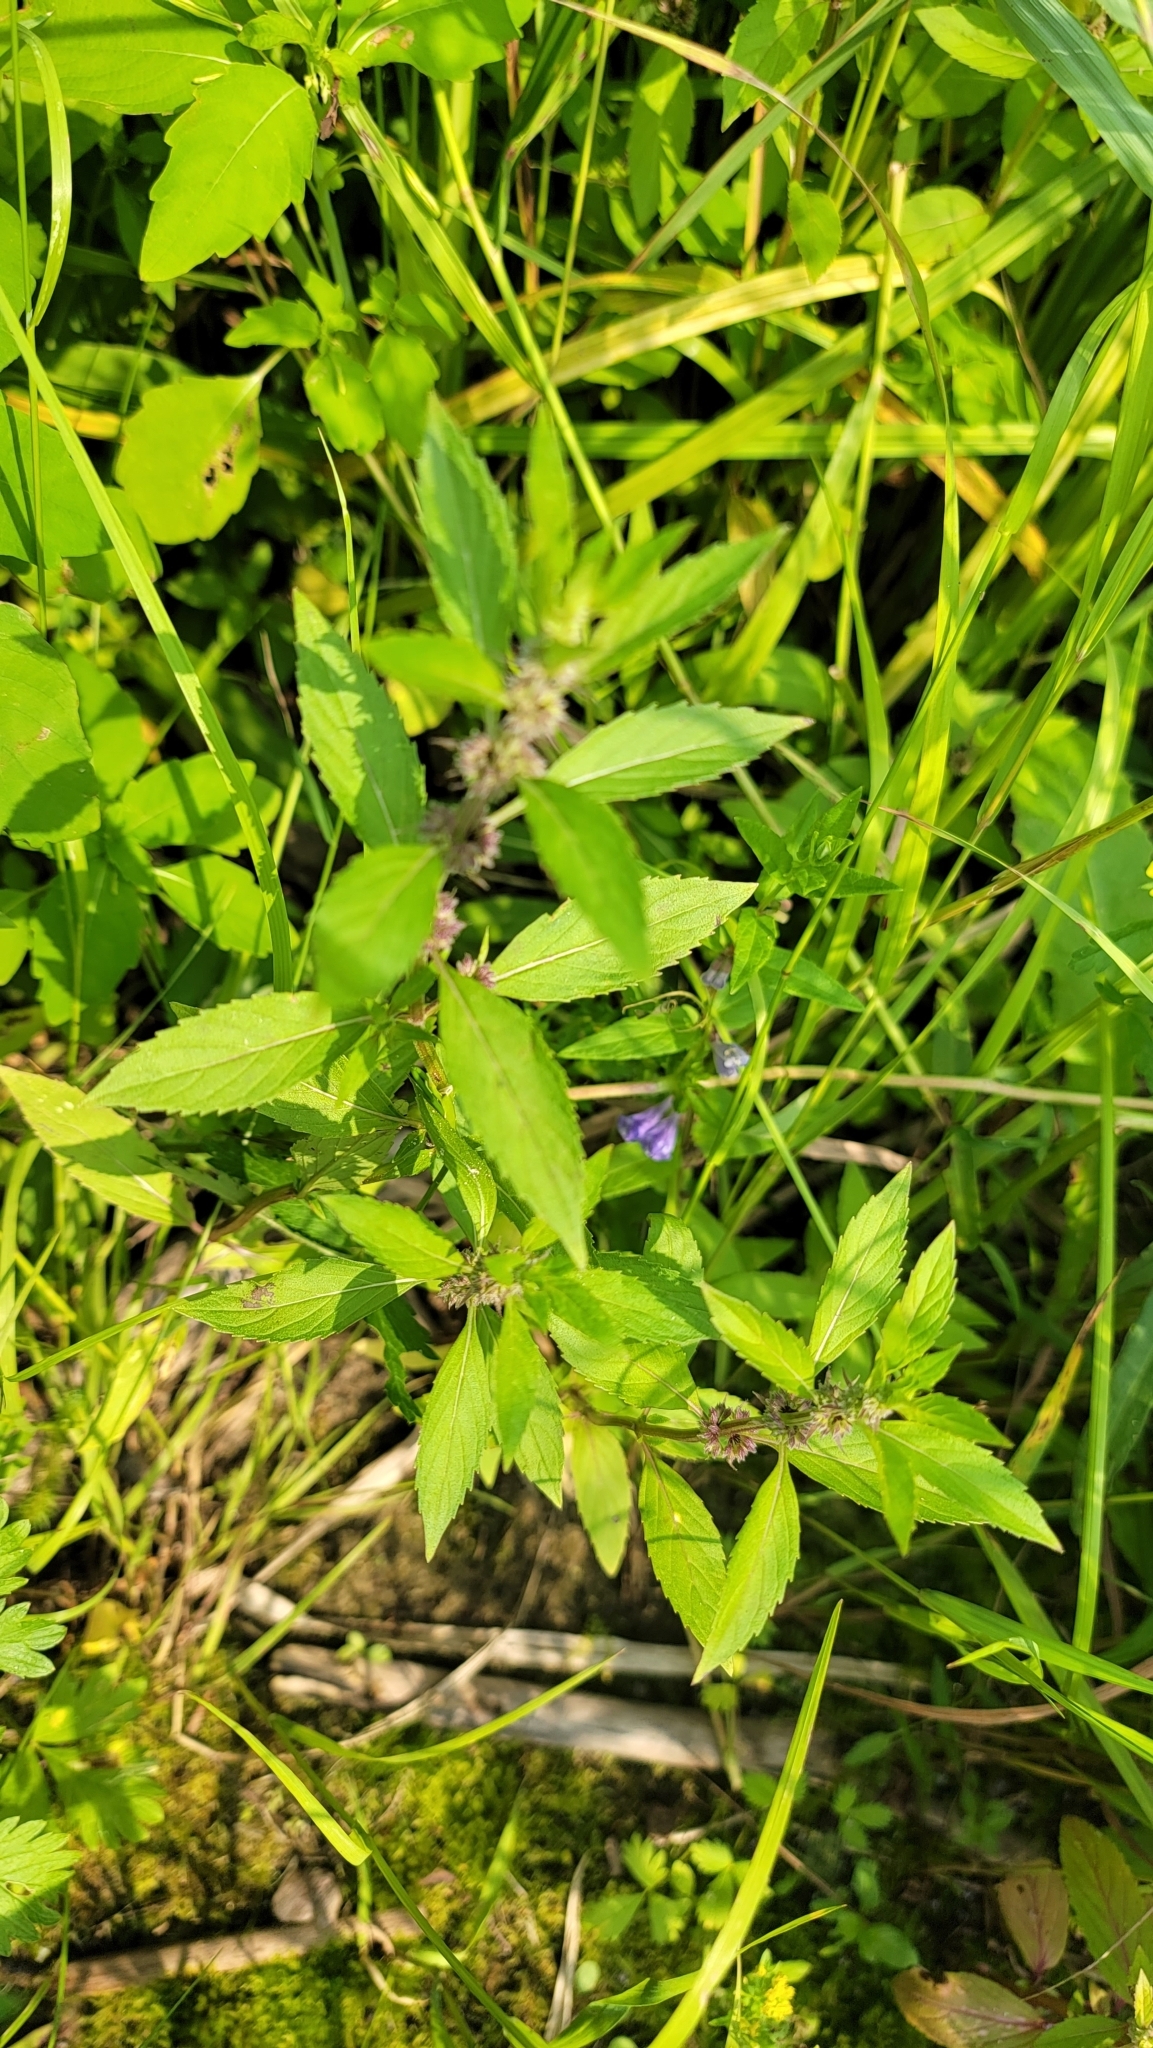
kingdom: Plantae
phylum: Tracheophyta
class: Magnoliopsida
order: Lamiales
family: Lamiaceae
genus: Mentha
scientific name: Mentha canadensis
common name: American corn mint
